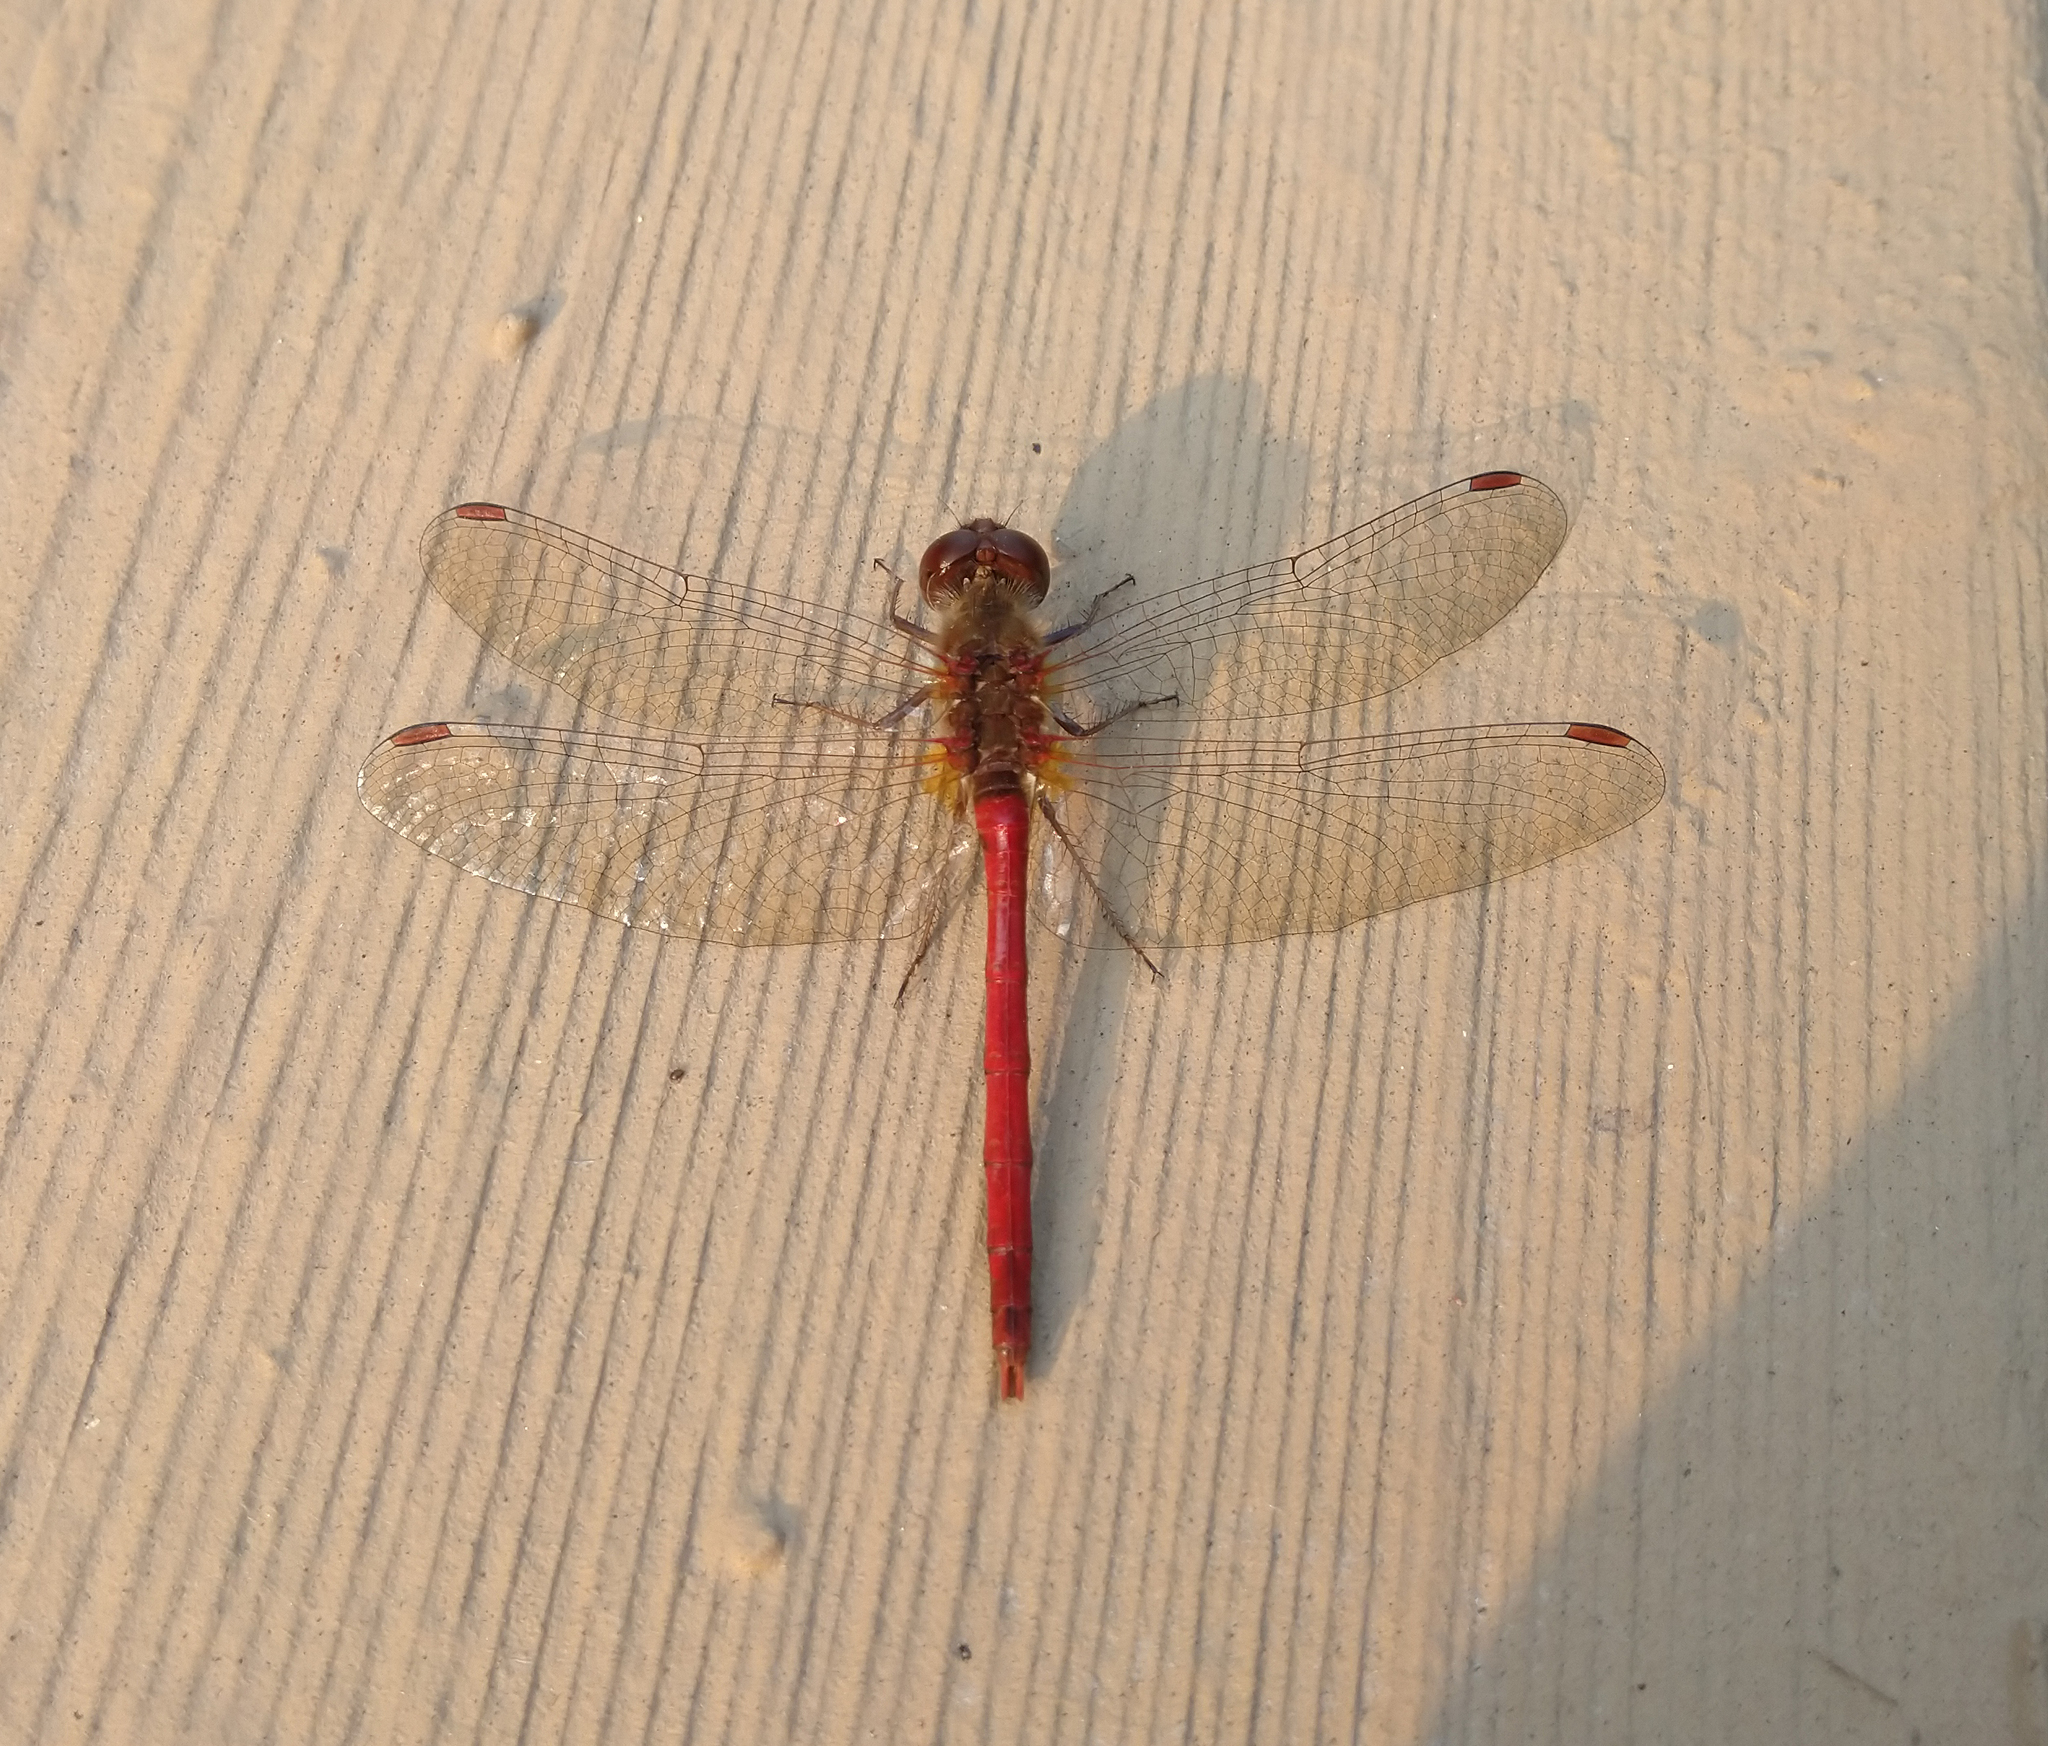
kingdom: Animalia
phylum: Arthropoda
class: Insecta
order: Odonata
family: Libellulidae
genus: Sympetrum
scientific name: Sympetrum vicinum
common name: Autumn meadowhawk
